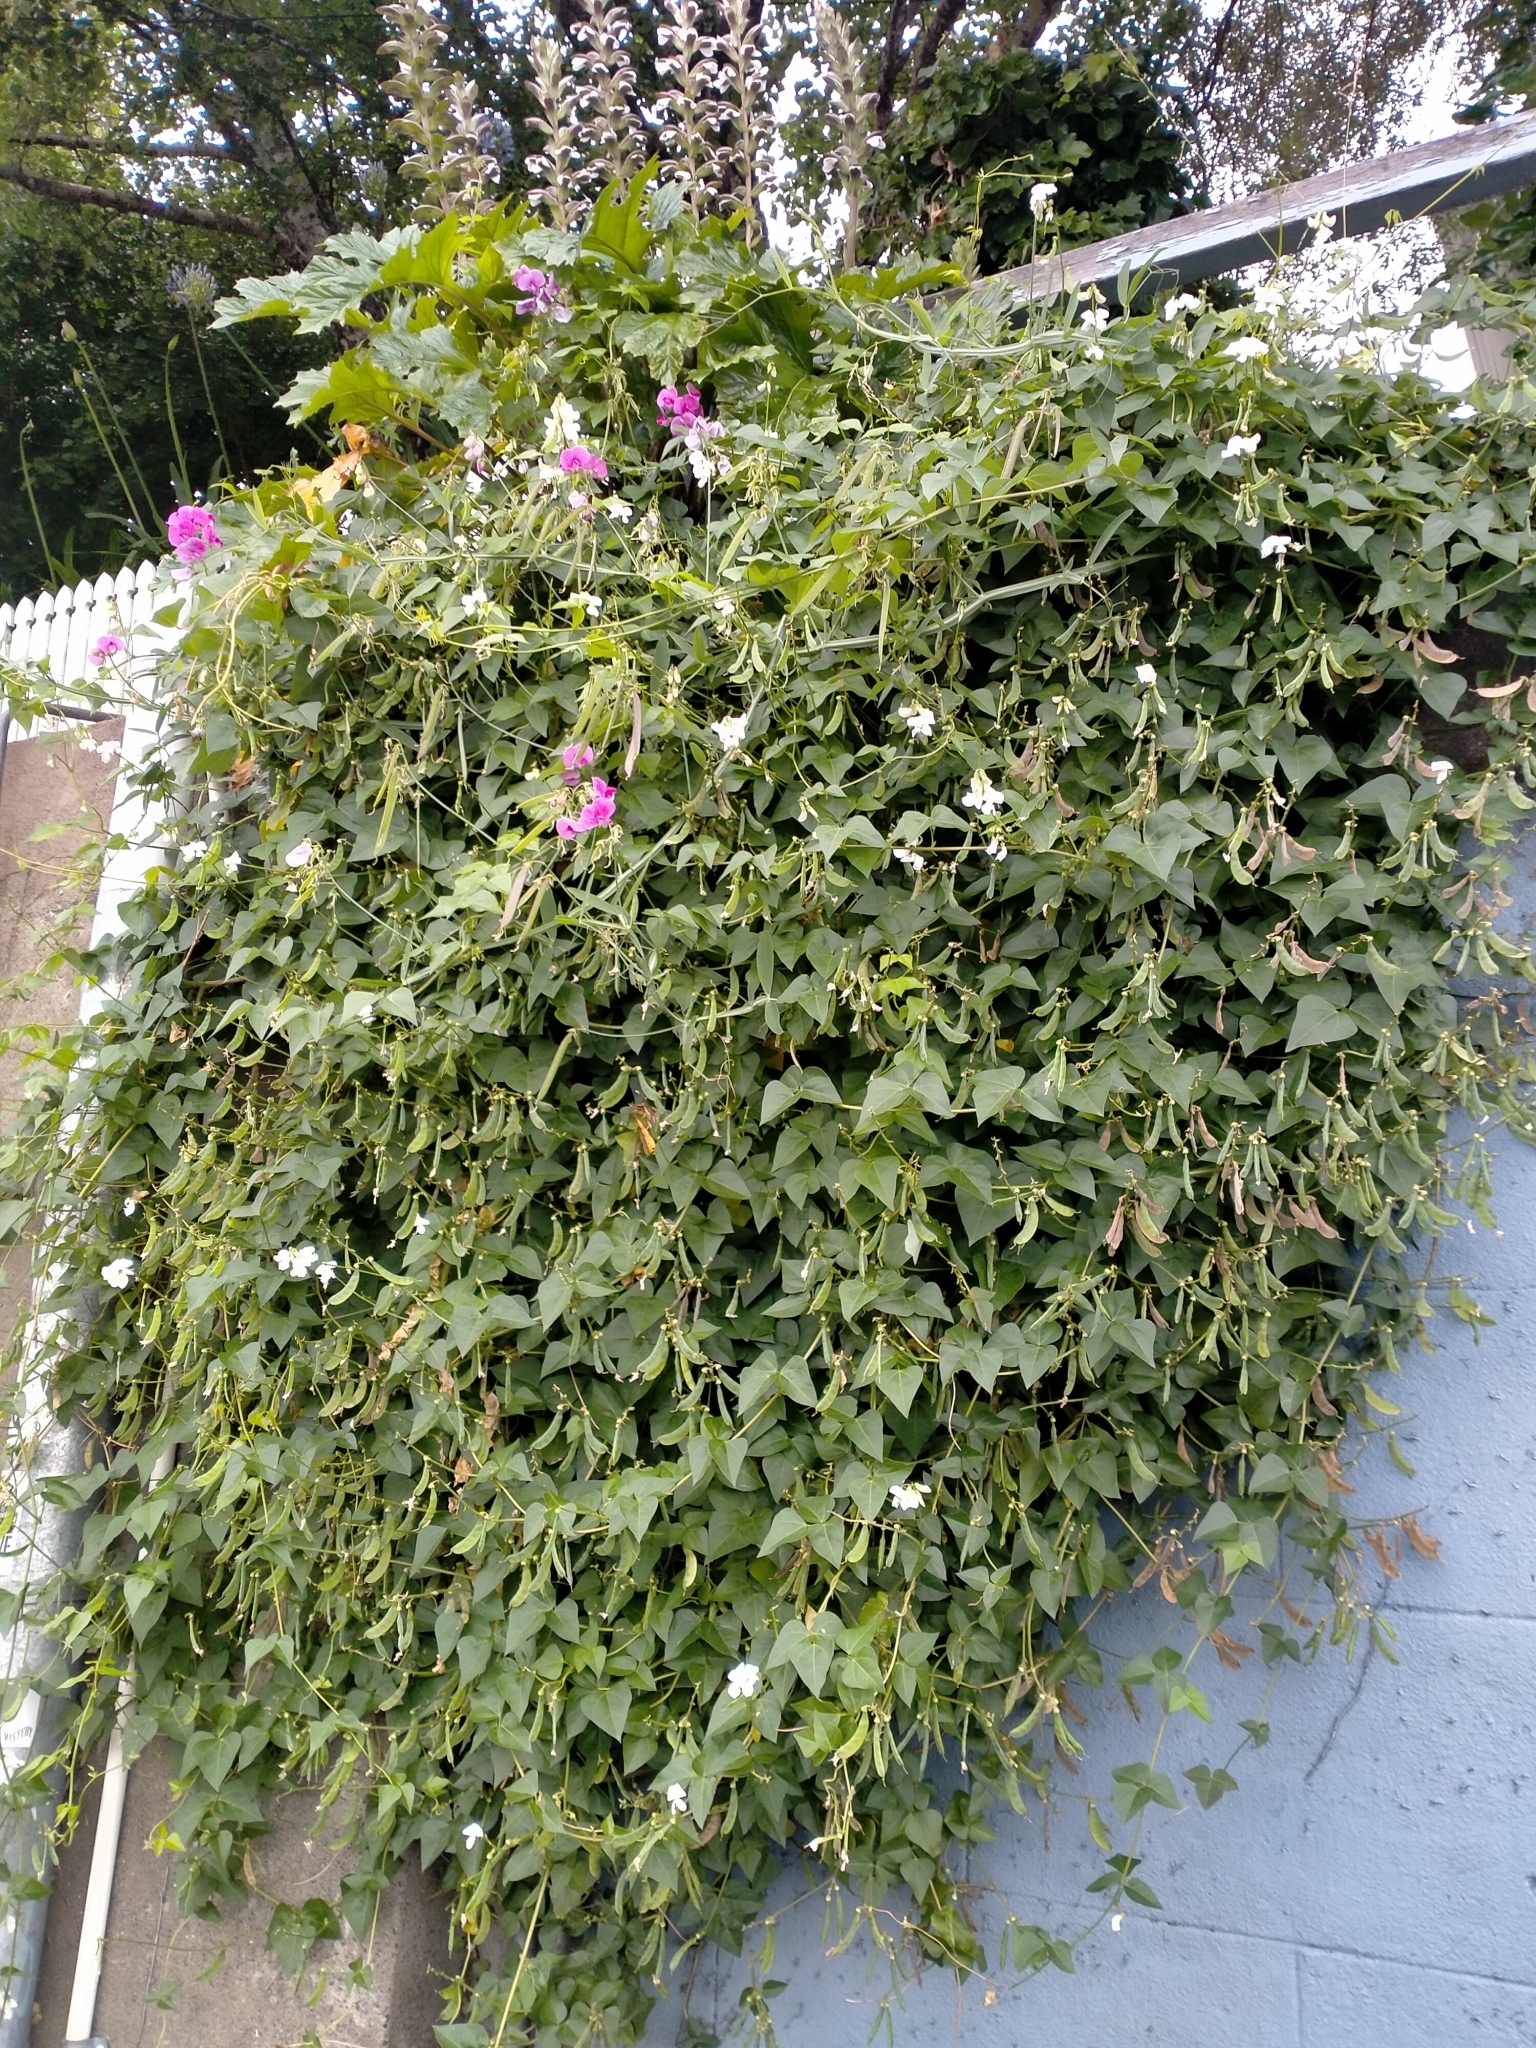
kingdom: Plantae
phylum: Tracheophyta
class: Magnoliopsida
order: Fabales
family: Fabaceae
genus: Dipogon
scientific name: Dipogon lignosus
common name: Okie bean
